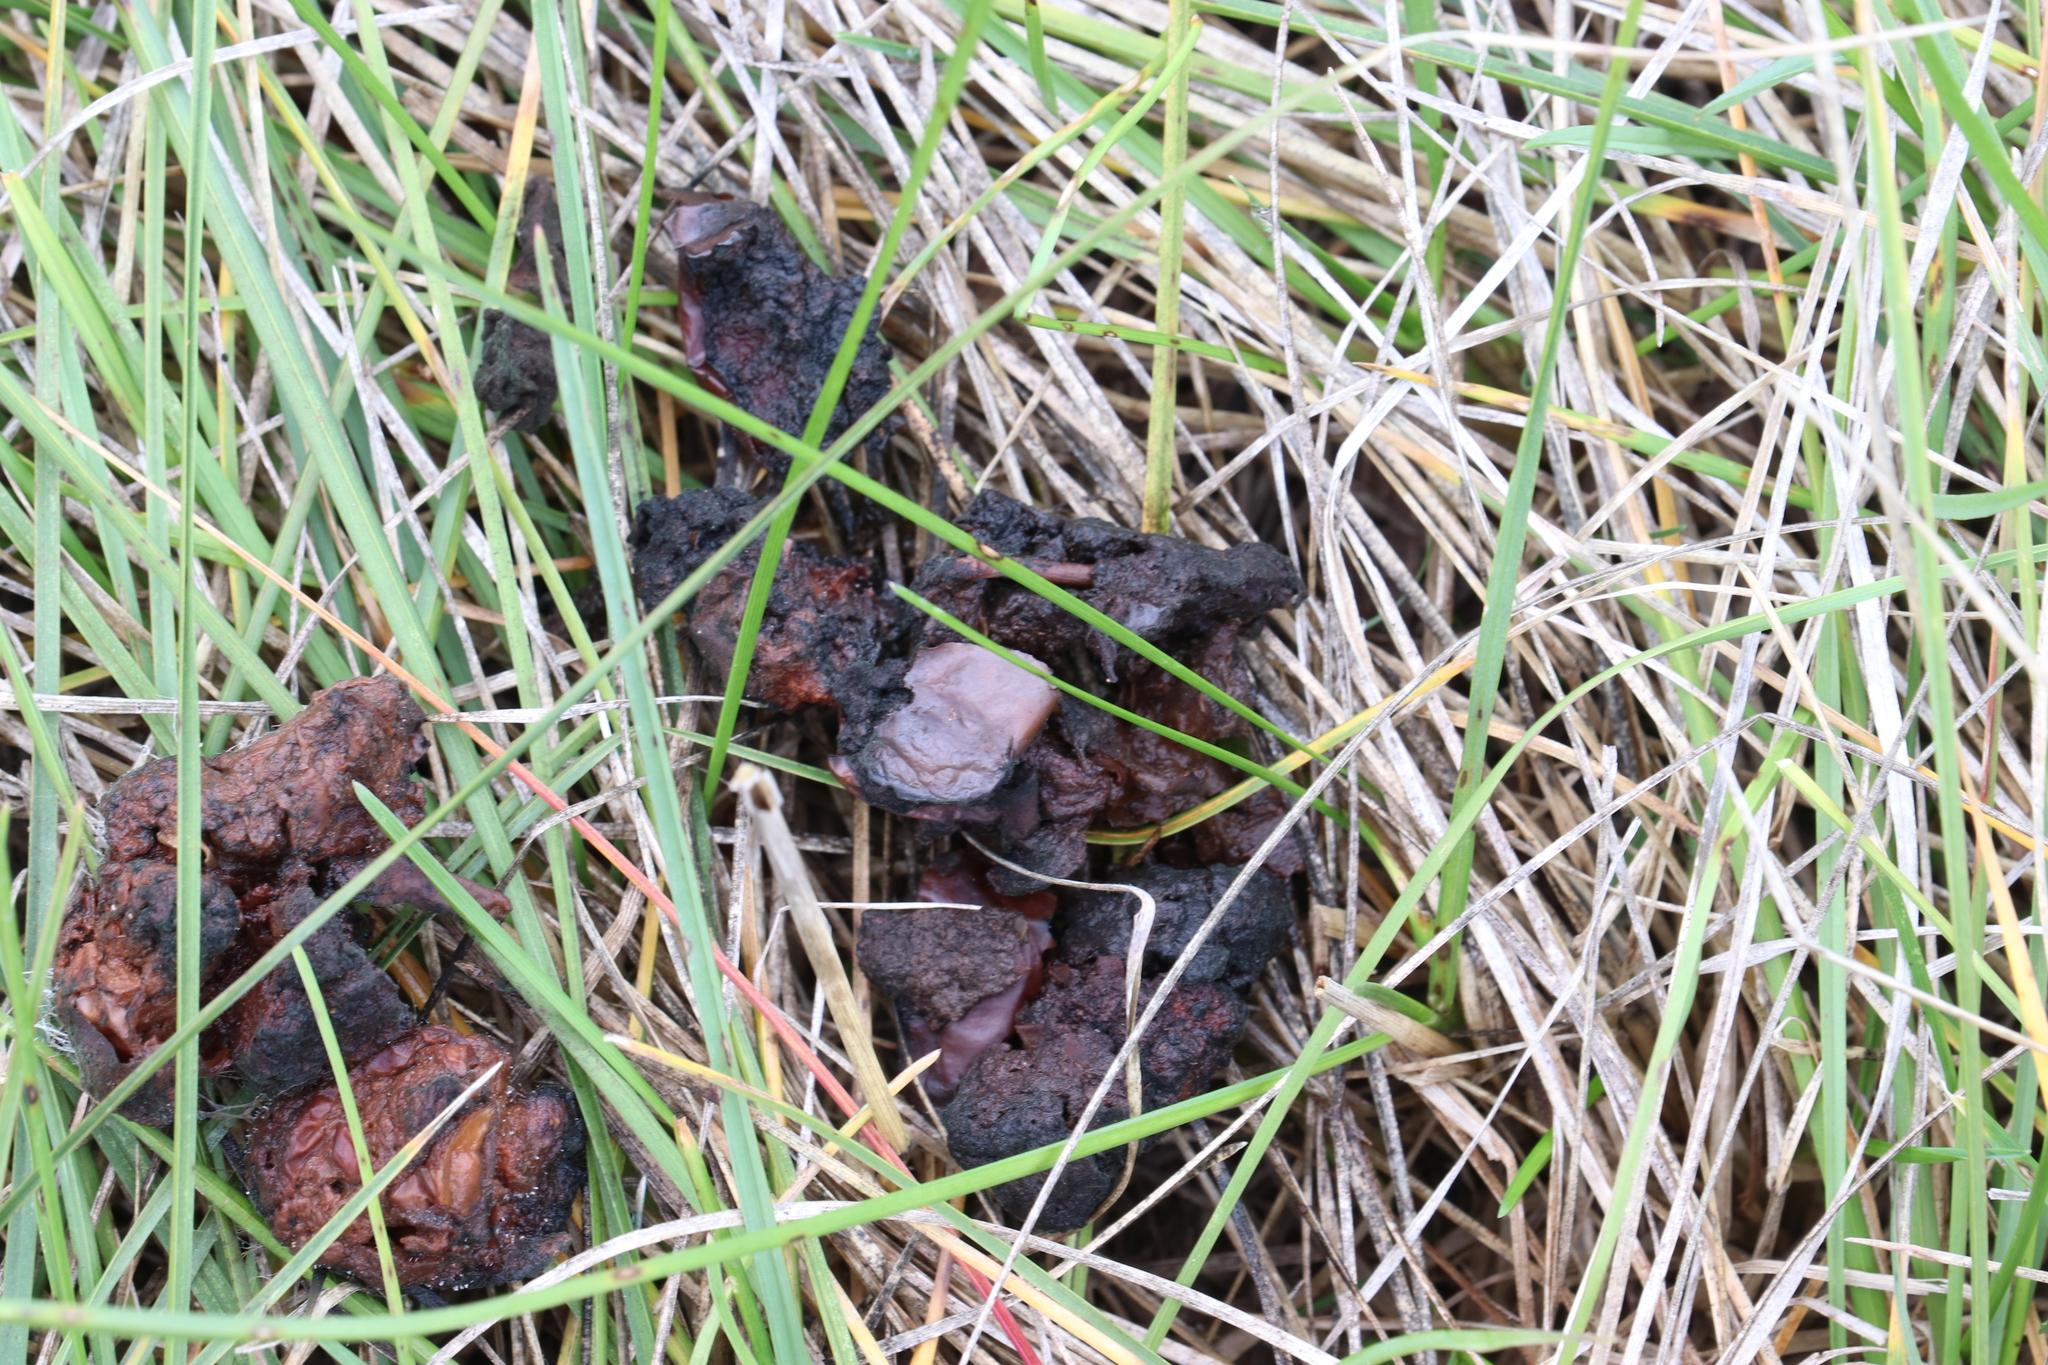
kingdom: Animalia
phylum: Chordata
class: Mammalia
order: Carnivora
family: Ursidae
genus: Ursus
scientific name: Ursus americanus
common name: American black bear
